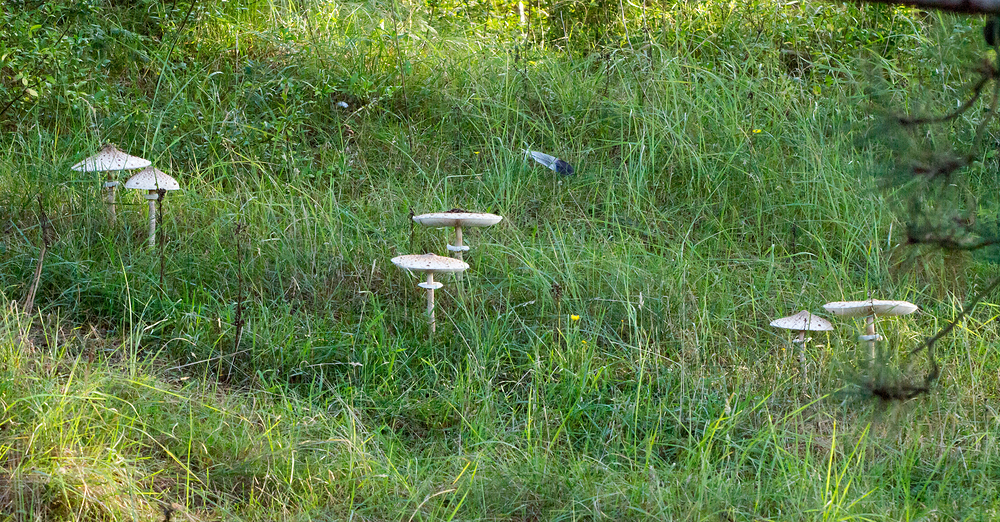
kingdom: Fungi
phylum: Basidiomycota
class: Agaricomycetes
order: Agaricales
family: Agaricaceae
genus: Macrolepiota
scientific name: Macrolepiota procera
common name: Parasol
